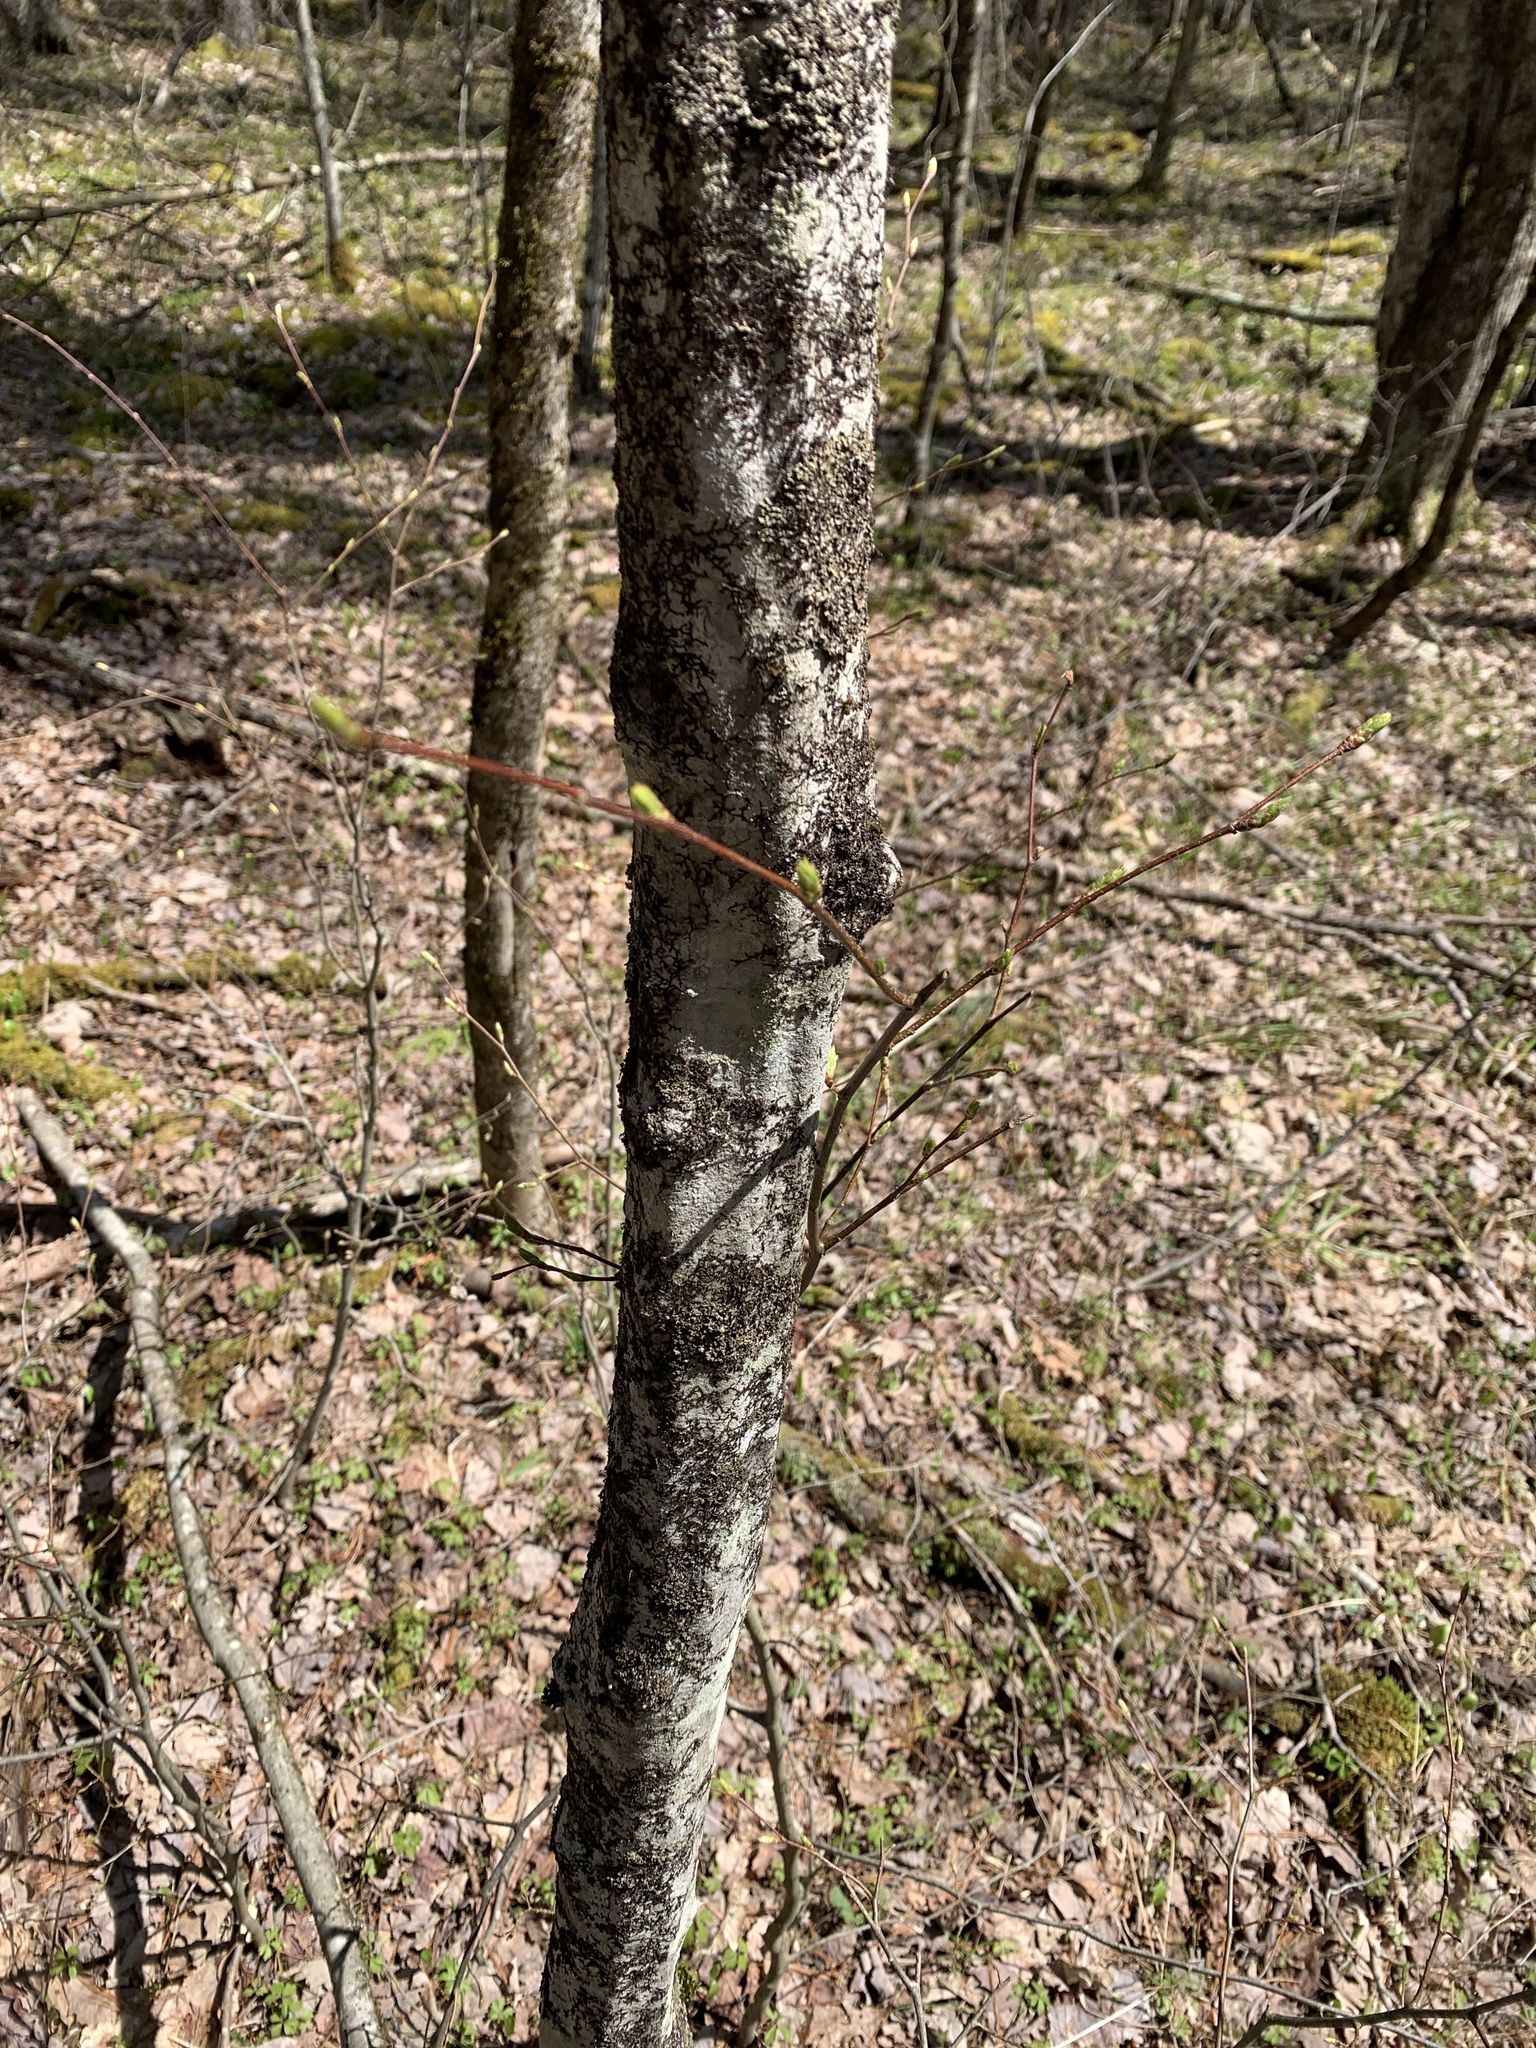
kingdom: Plantae
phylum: Tracheophyta
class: Magnoliopsida
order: Fagales
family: Betulaceae
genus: Carpinus
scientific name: Carpinus caroliniana
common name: American hornbeam
